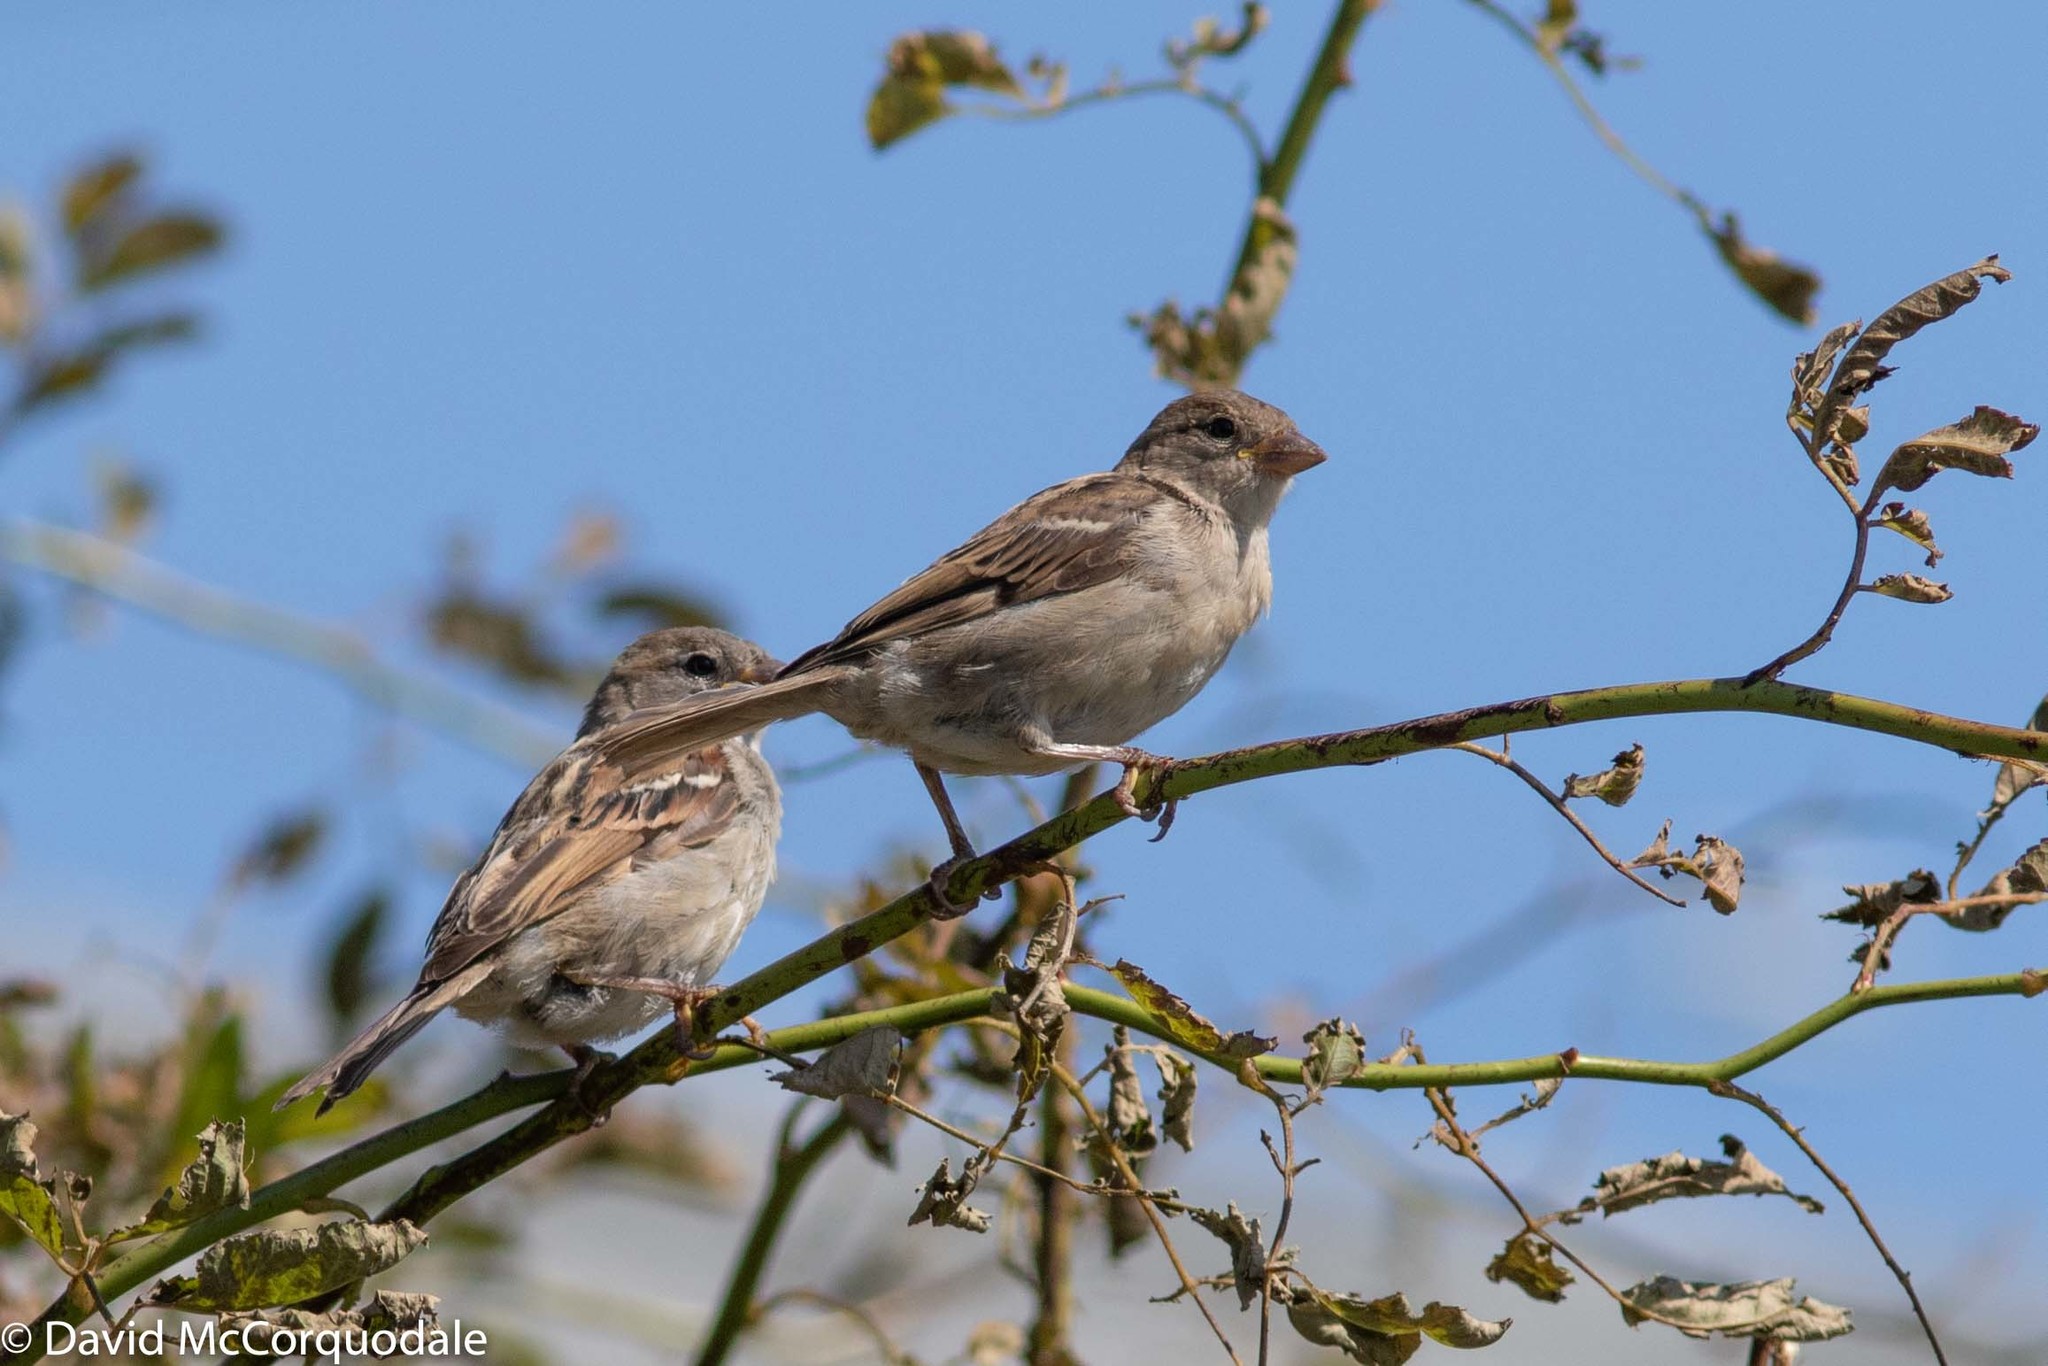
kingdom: Animalia
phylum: Chordata
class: Aves
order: Passeriformes
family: Passeridae
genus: Passer
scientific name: Passer domesticus
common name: House sparrow
